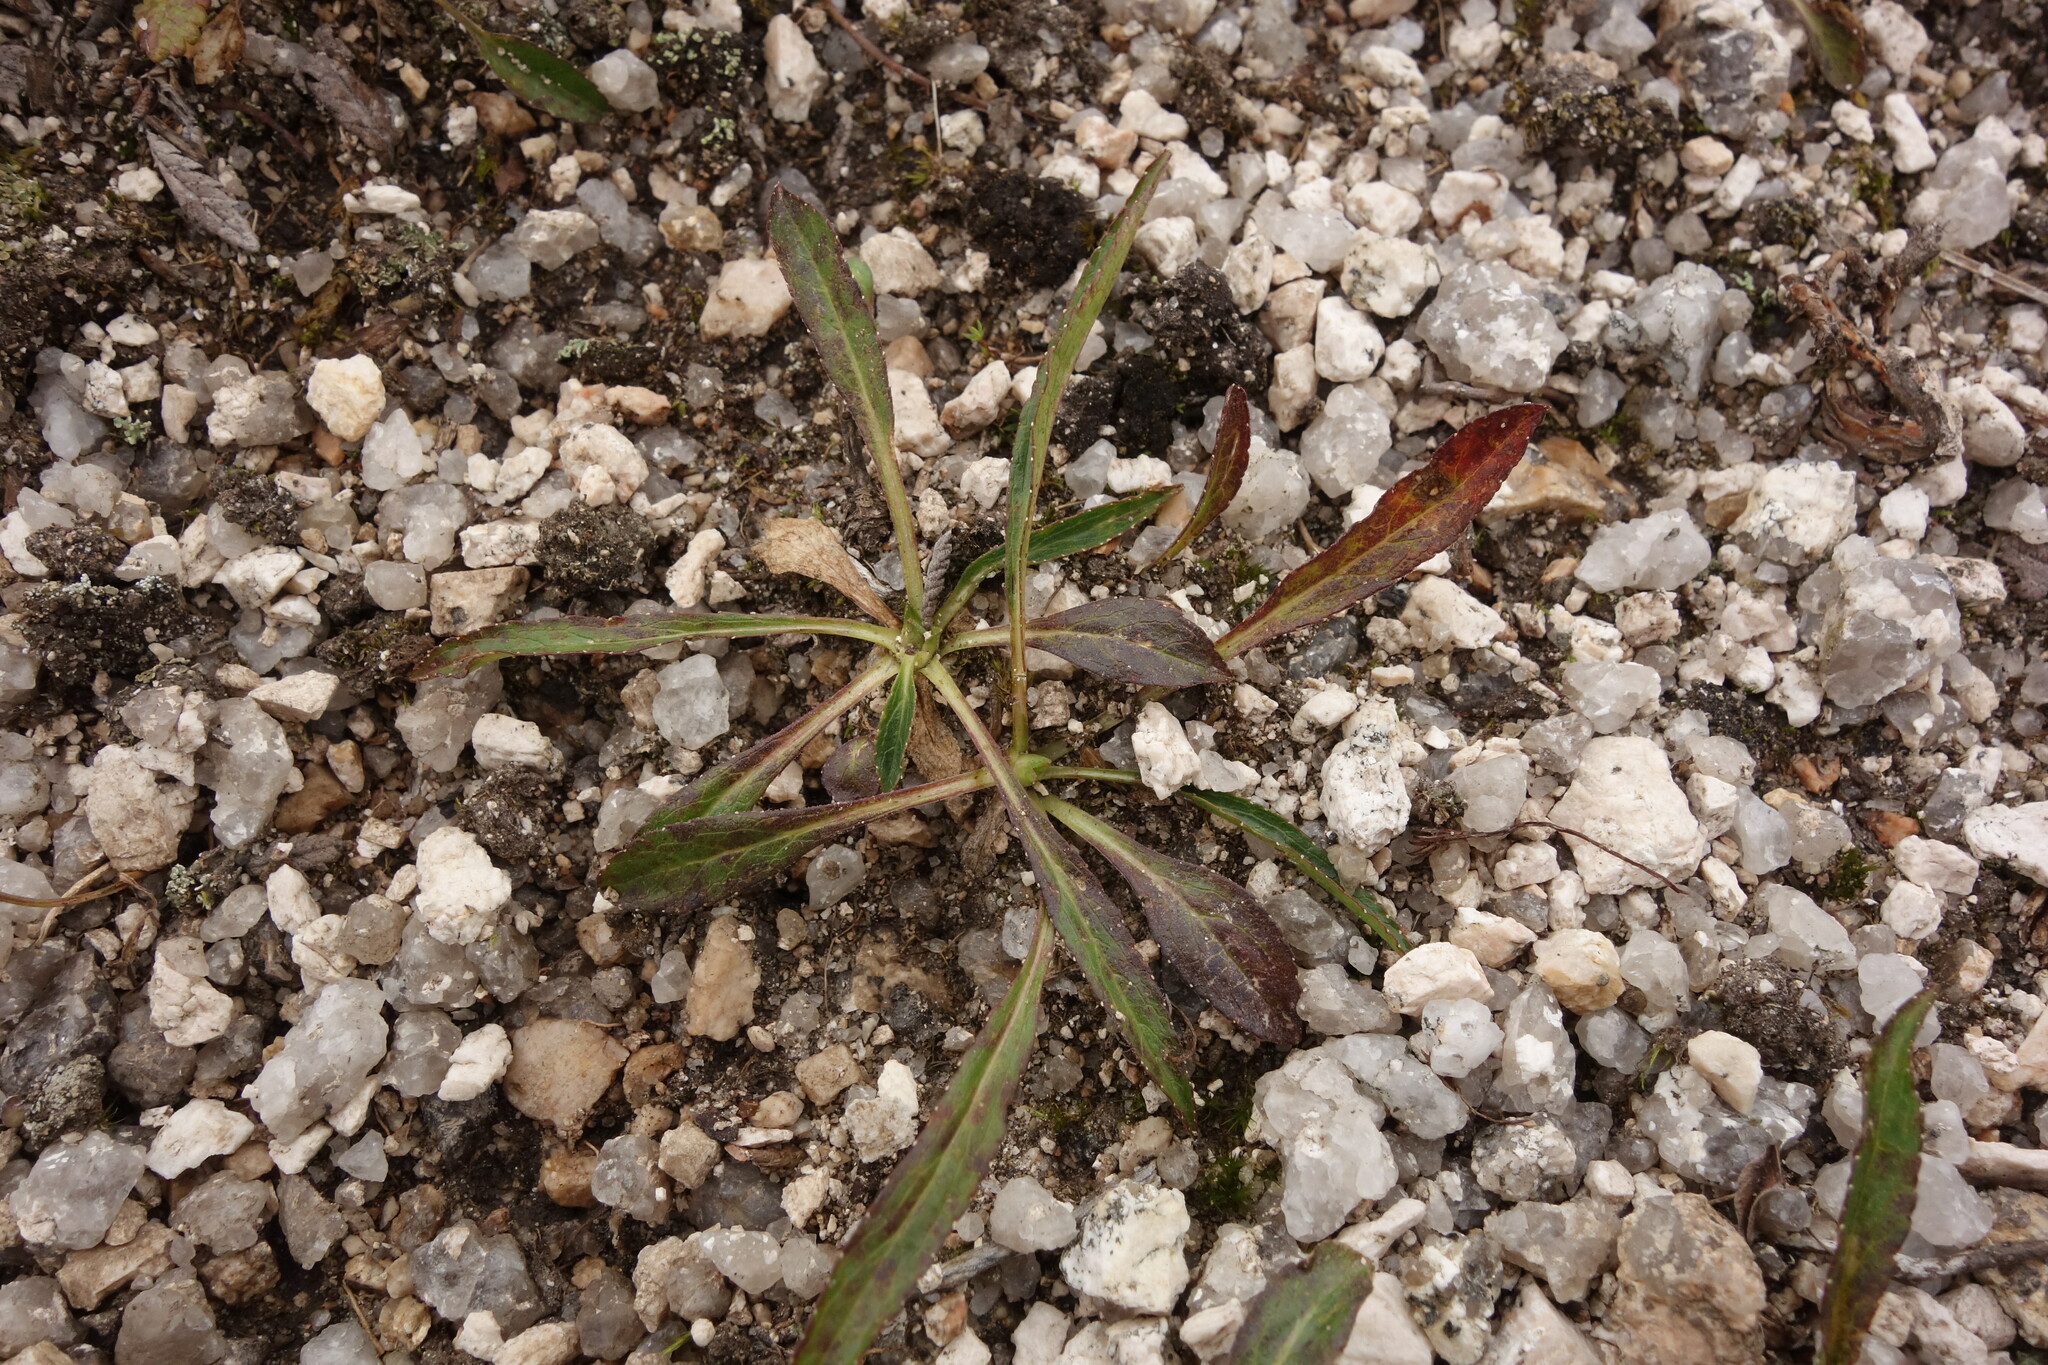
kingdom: Plantae
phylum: Tracheophyta
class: Magnoliopsida
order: Asterales
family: Campanulaceae
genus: Campanula
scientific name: Campanula dasyantha
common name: Hairyflower bellflower
